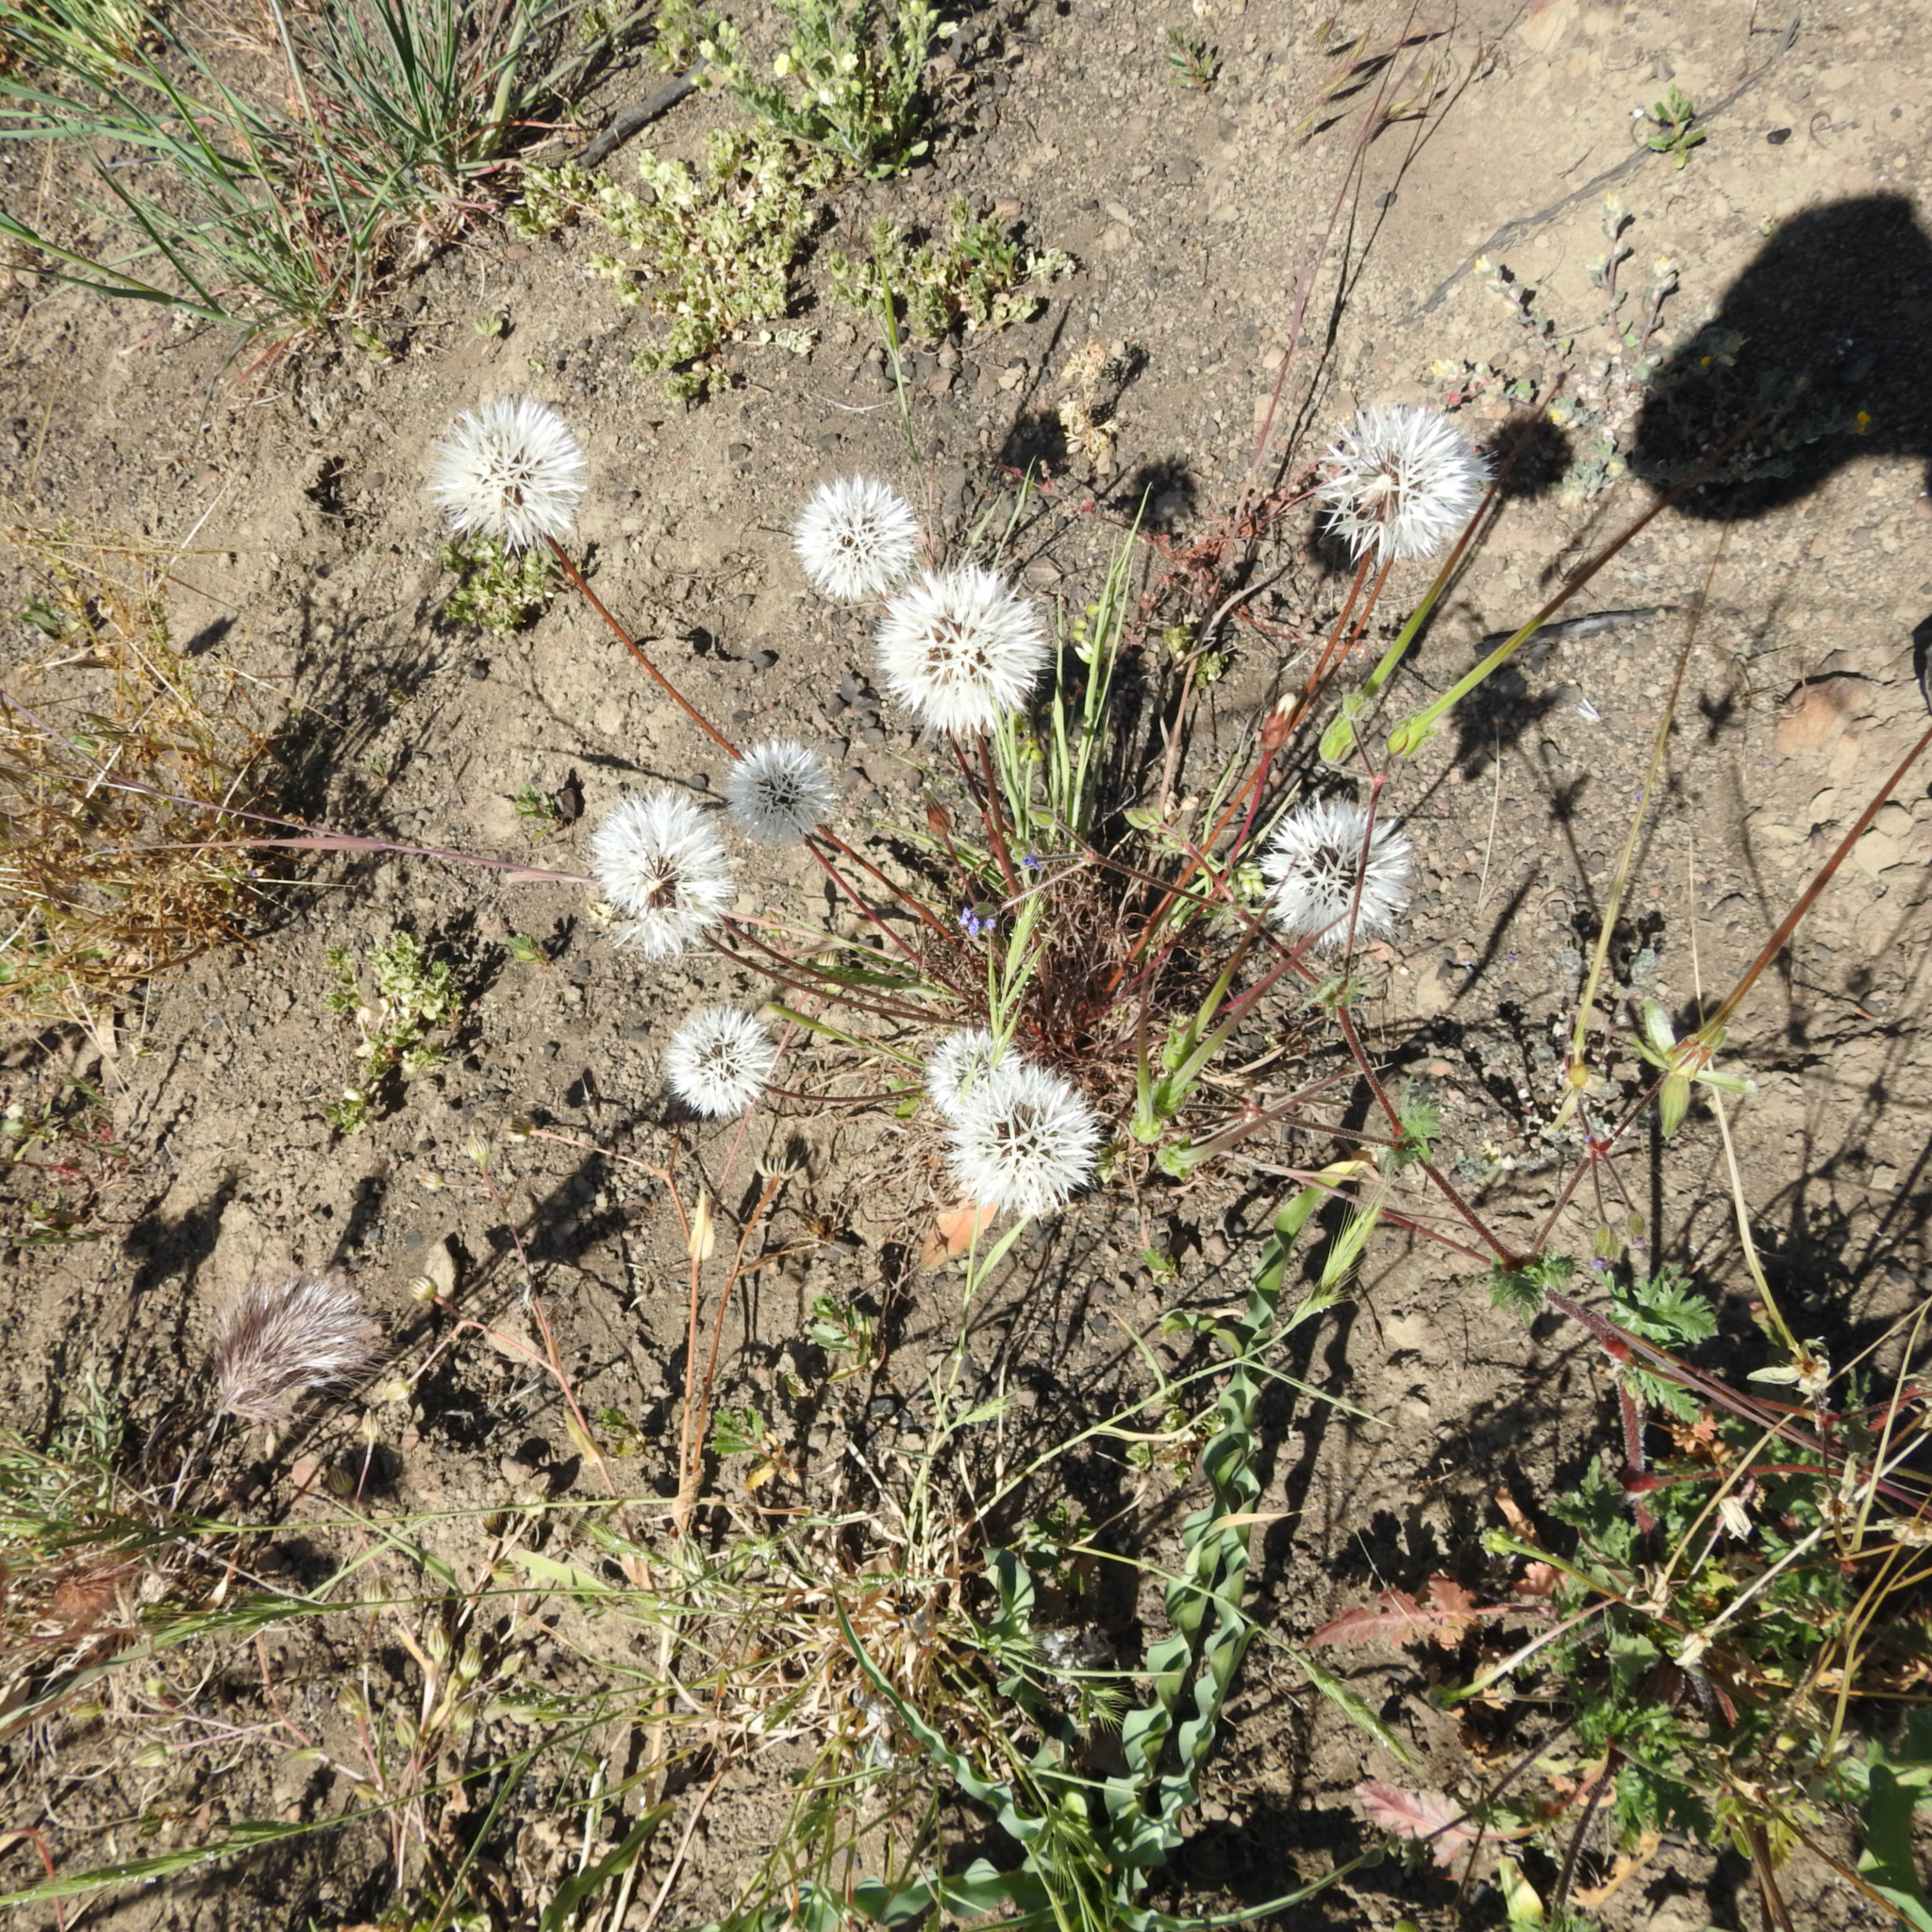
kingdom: Plantae
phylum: Tracheophyta
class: Magnoliopsida
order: Asterales
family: Asteraceae
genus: Microseris
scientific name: Microseris lindleyi
